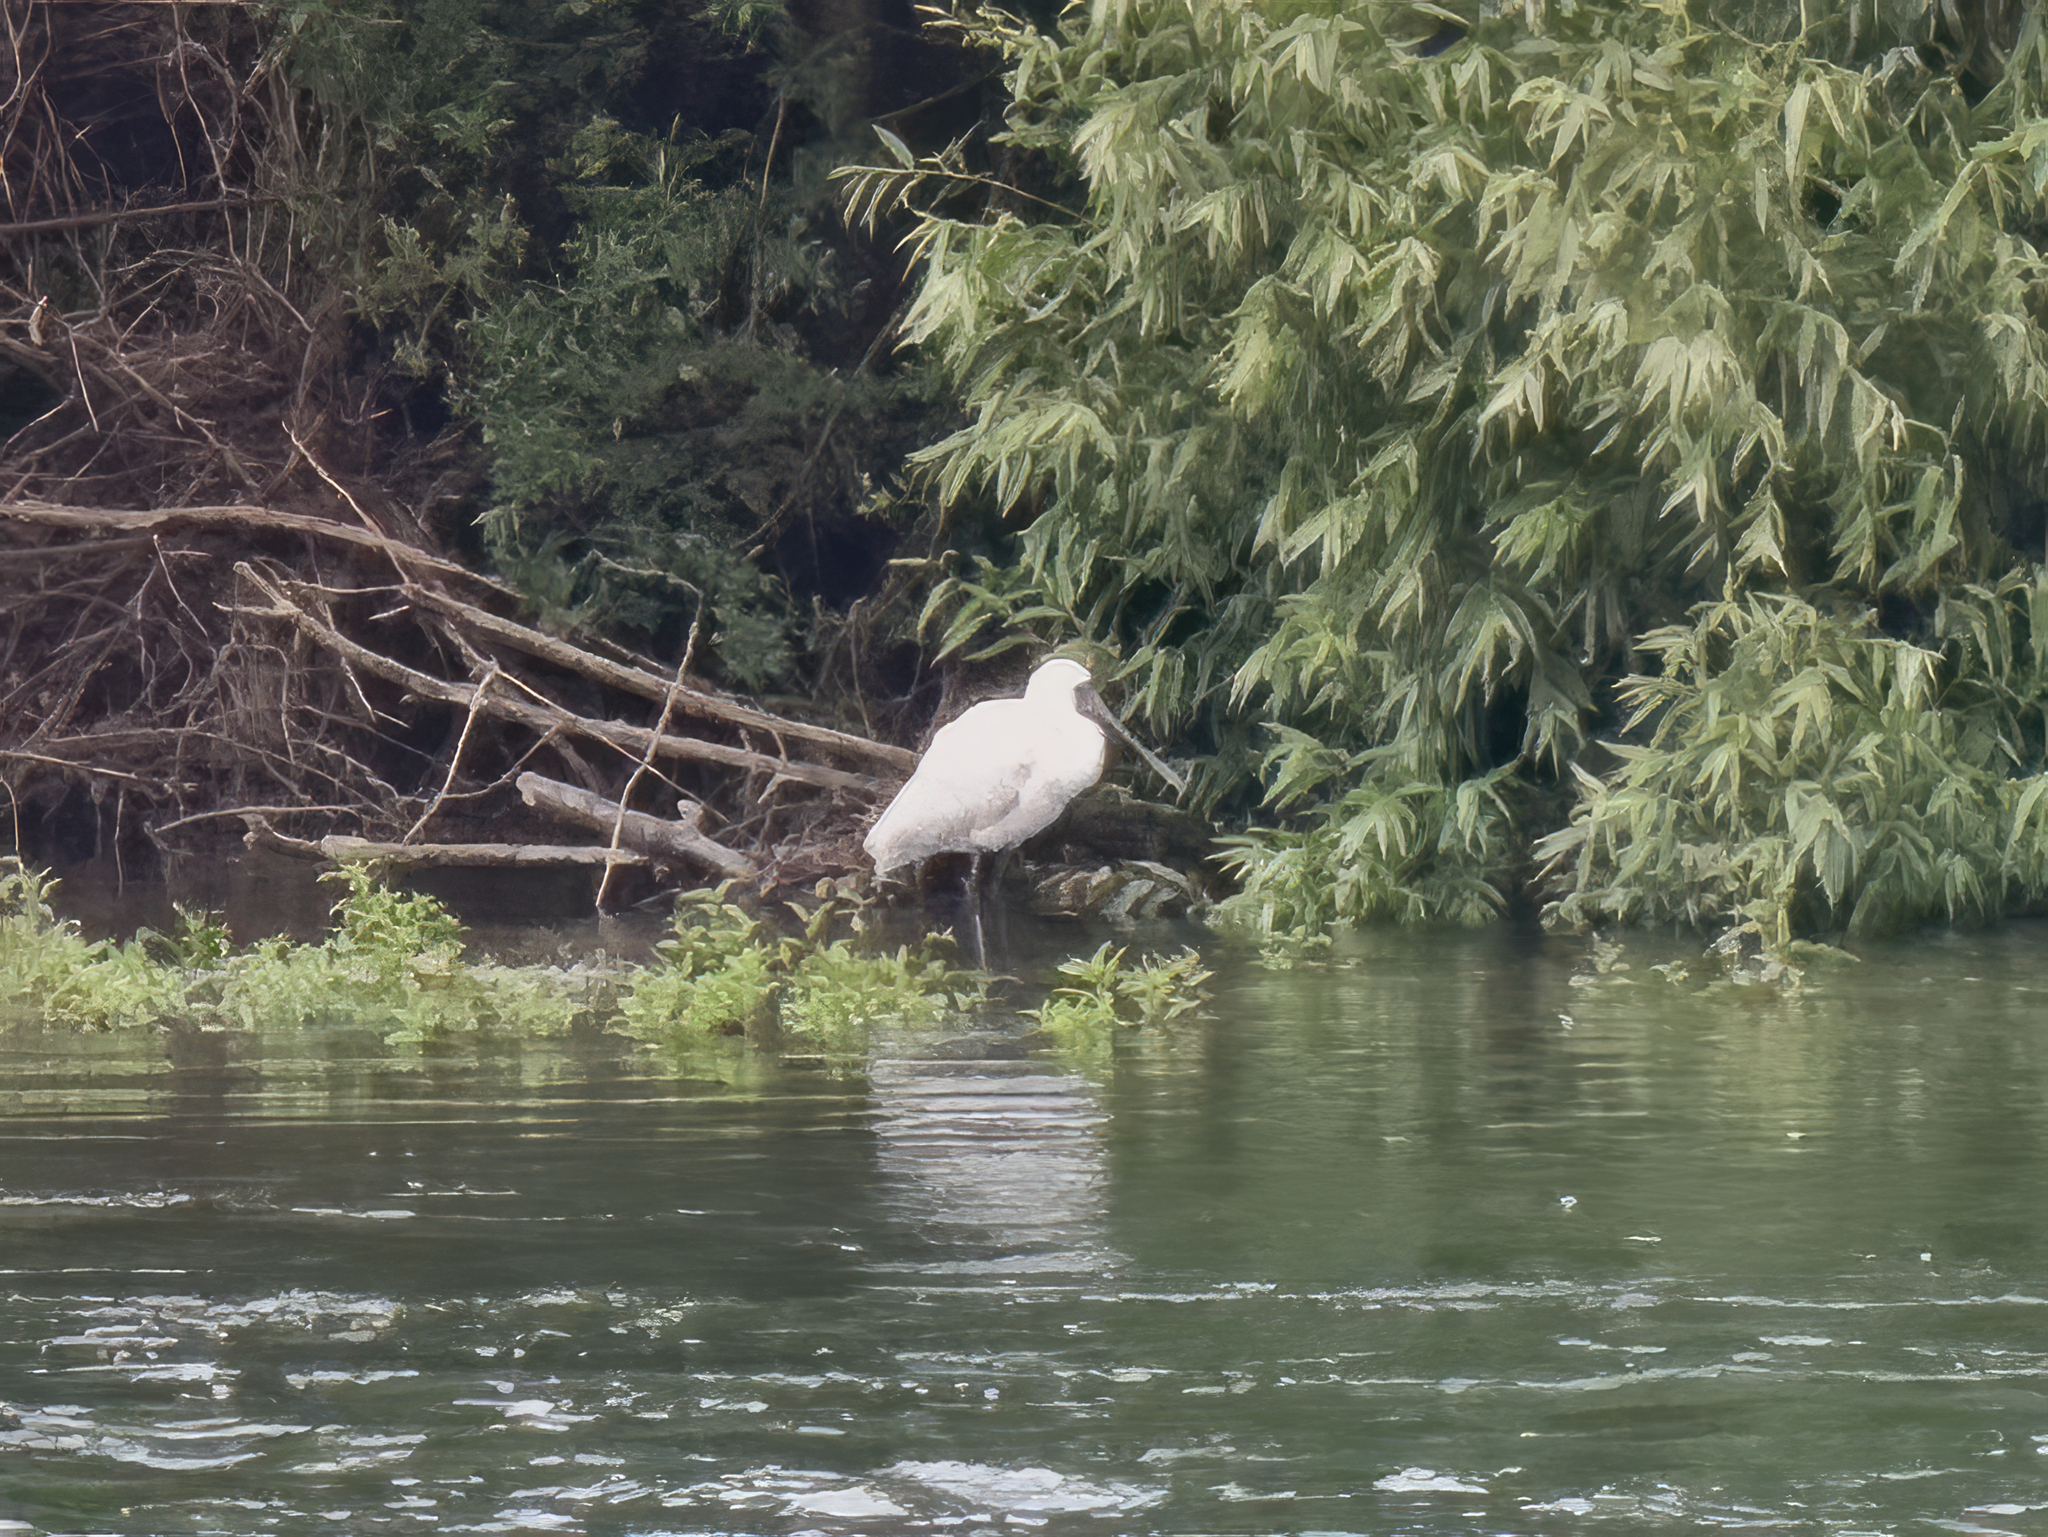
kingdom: Animalia
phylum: Chordata
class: Aves
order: Pelecaniformes
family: Threskiornithidae
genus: Platalea
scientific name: Platalea regia
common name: Royal spoonbill
